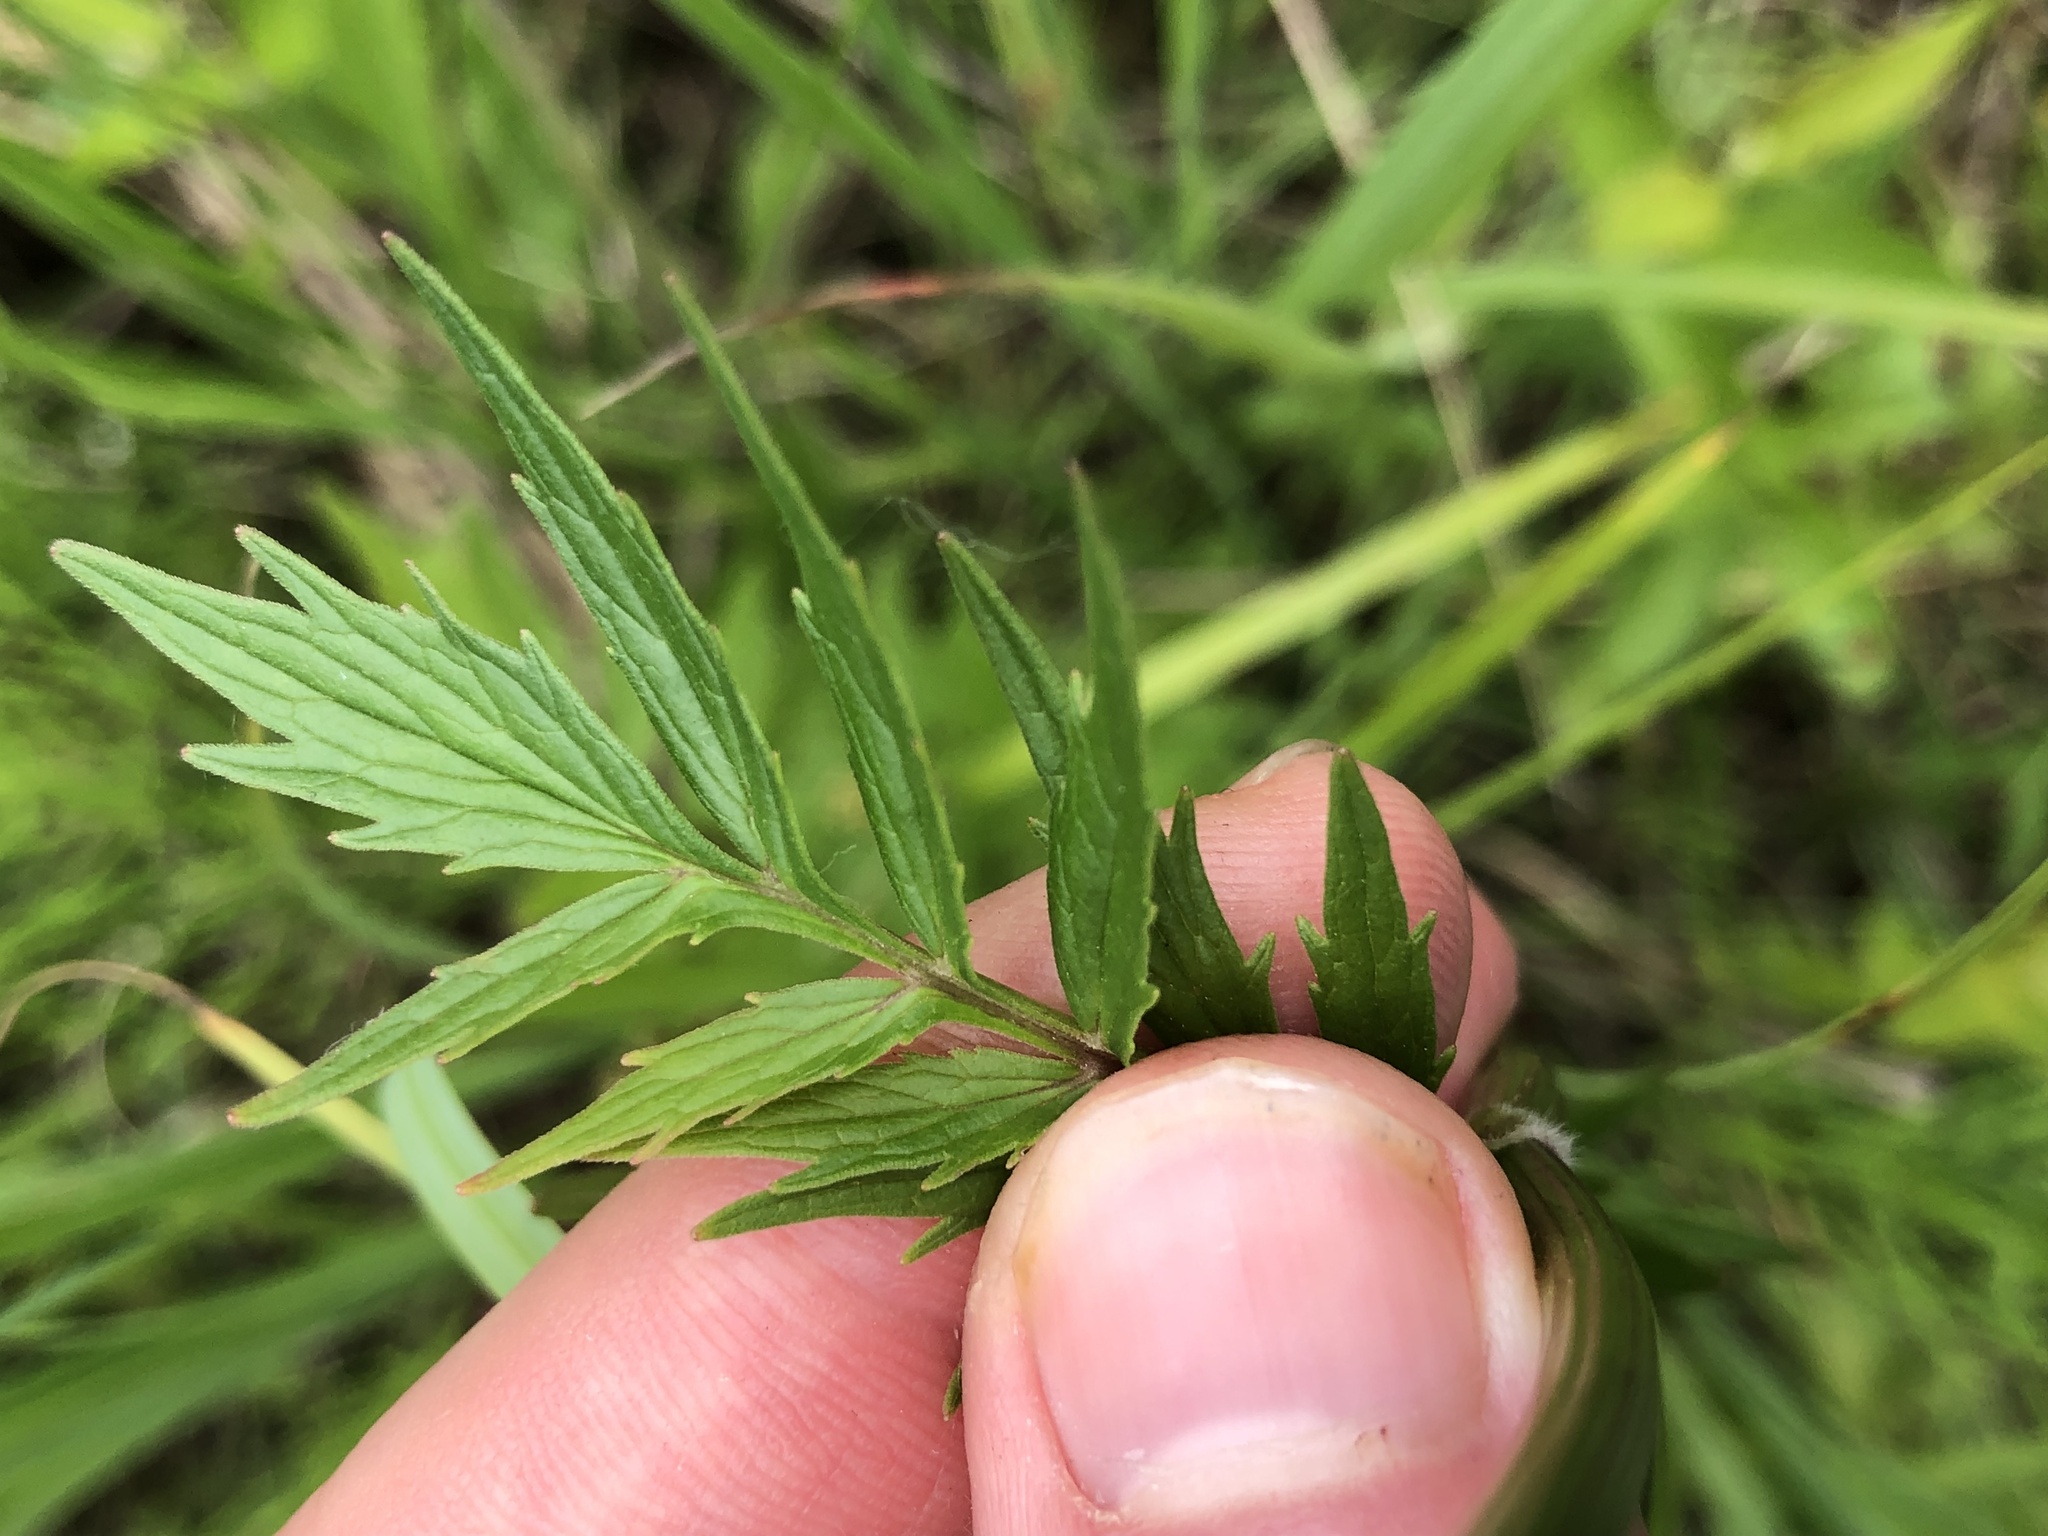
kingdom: Plantae
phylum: Tracheophyta
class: Magnoliopsida
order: Dipsacales
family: Caprifoliaceae
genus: Valeriana
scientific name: Valeriana officinalis
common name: Common valerian
